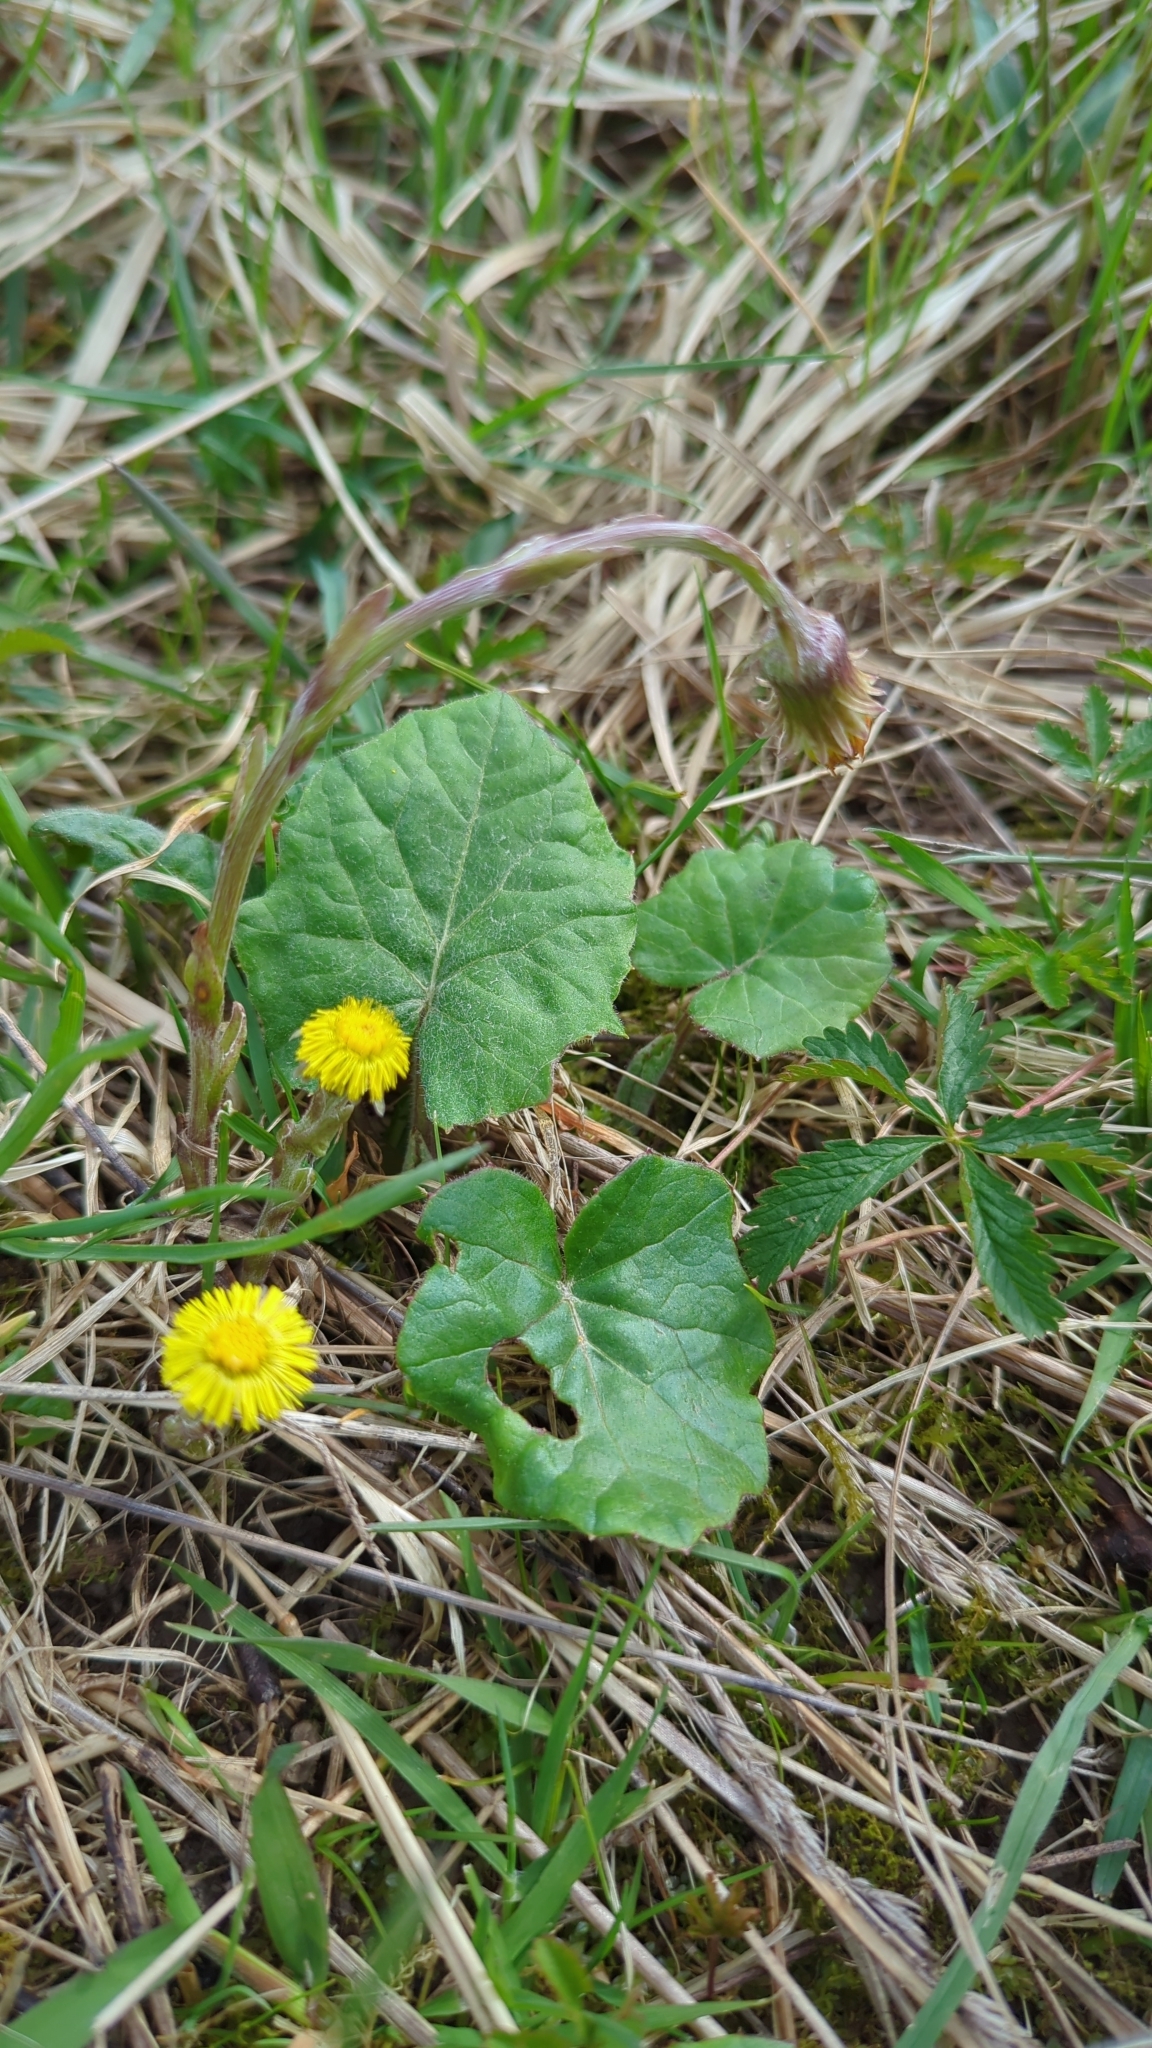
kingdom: Plantae
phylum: Tracheophyta
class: Magnoliopsida
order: Asterales
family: Asteraceae
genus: Tussilago
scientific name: Tussilago farfara
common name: Coltsfoot
